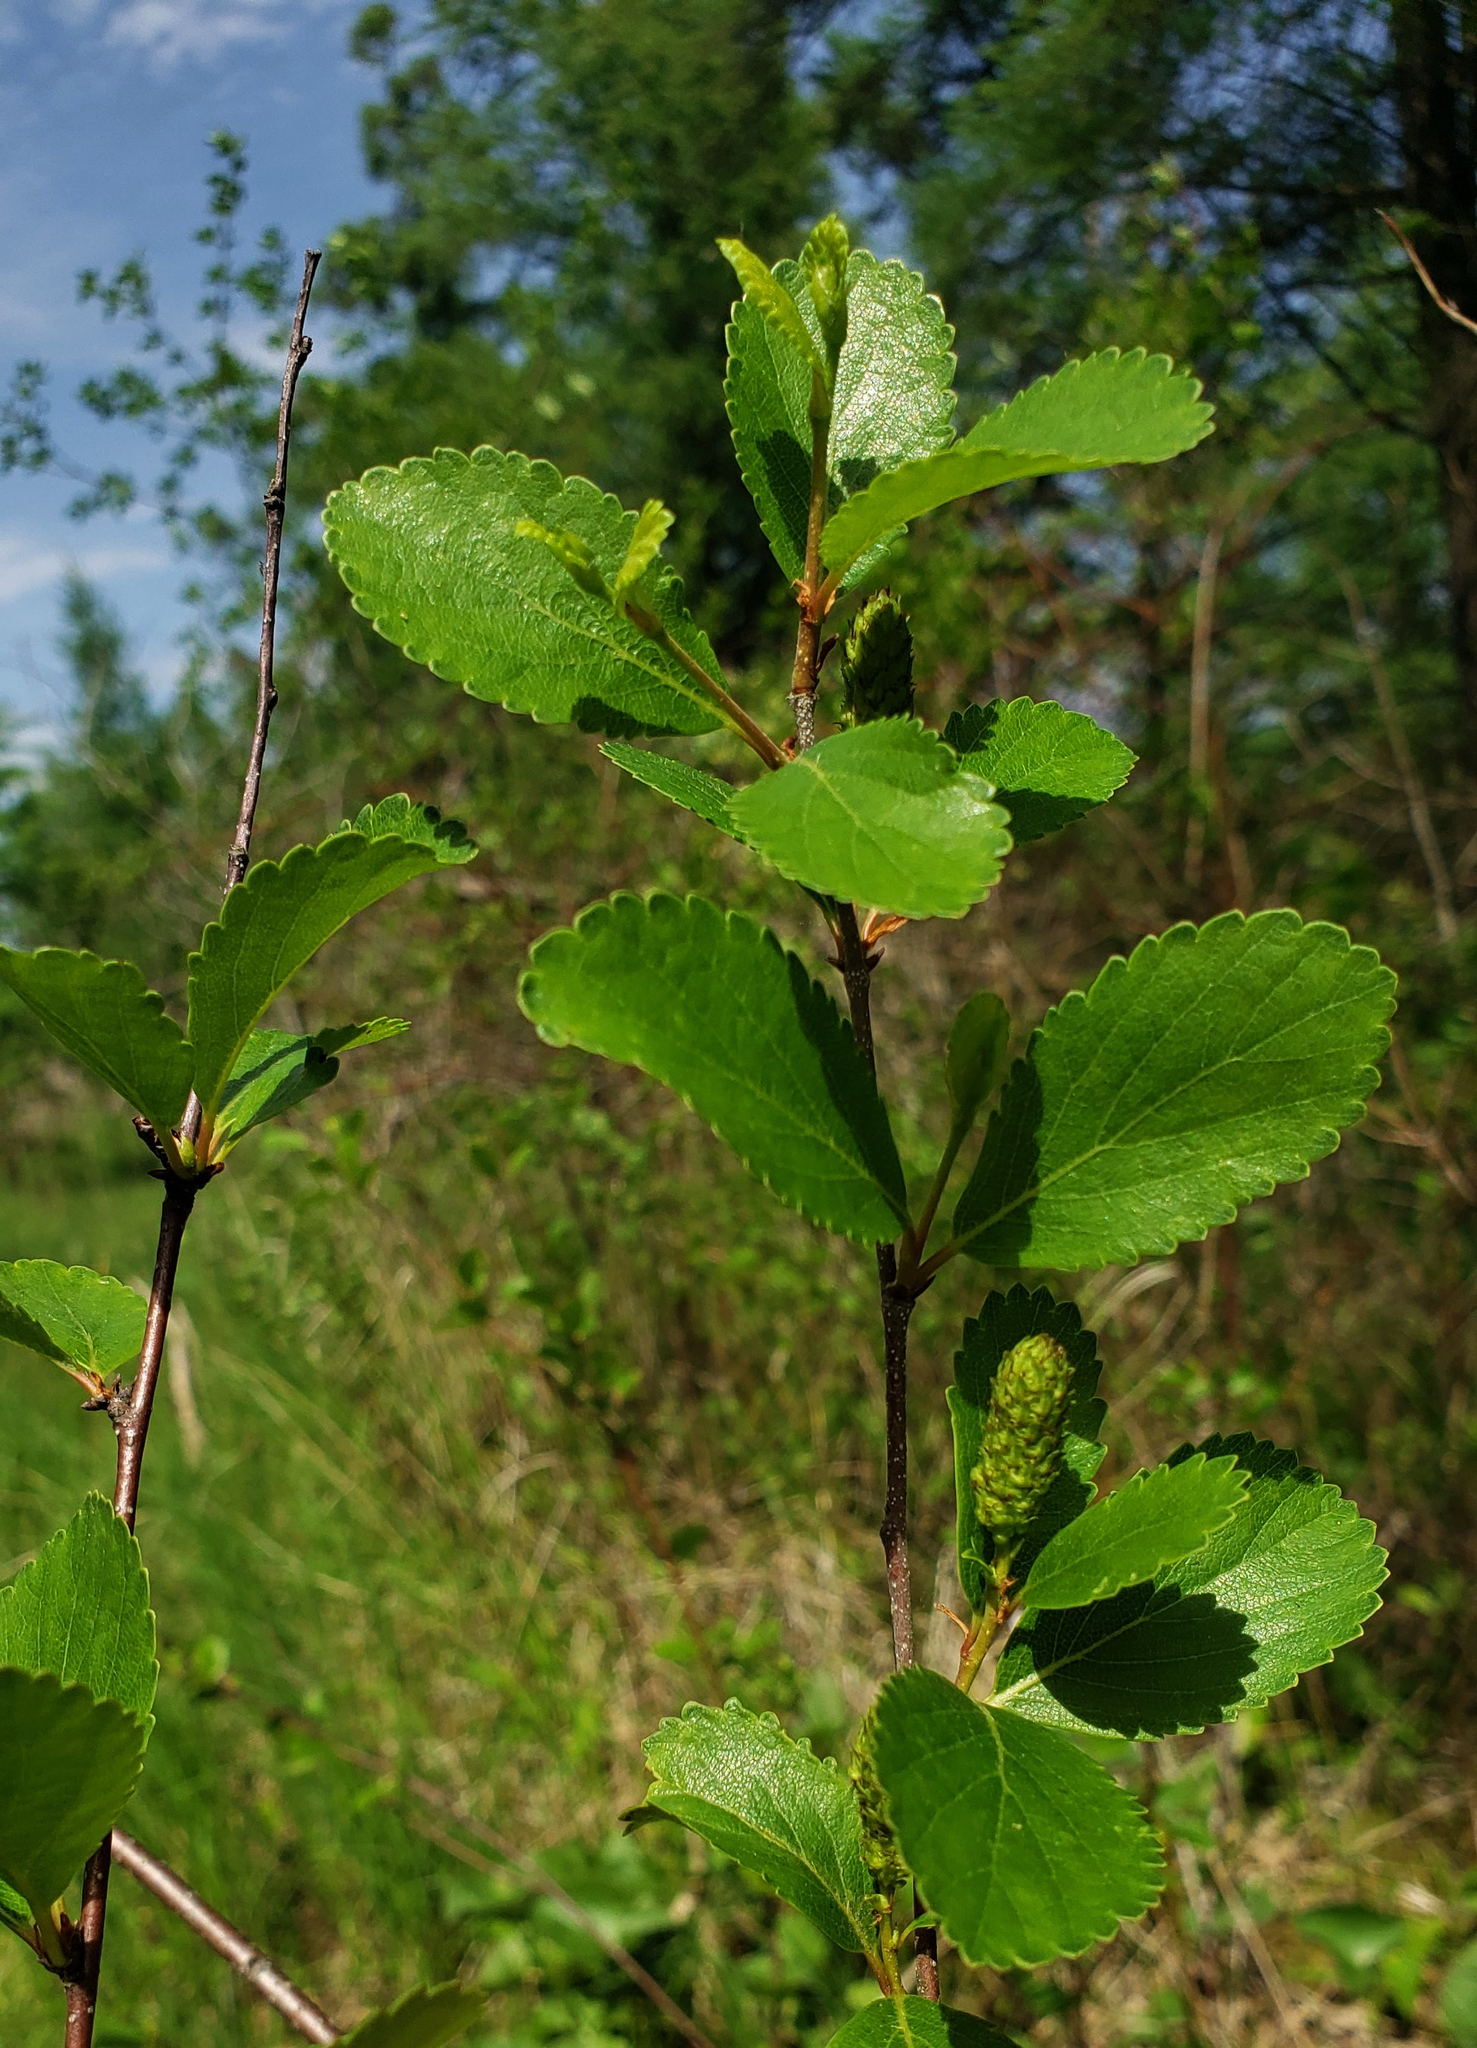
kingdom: Plantae
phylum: Tracheophyta
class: Magnoliopsida
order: Fagales
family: Betulaceae
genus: Betula
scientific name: Betula pumila
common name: Bog birch
